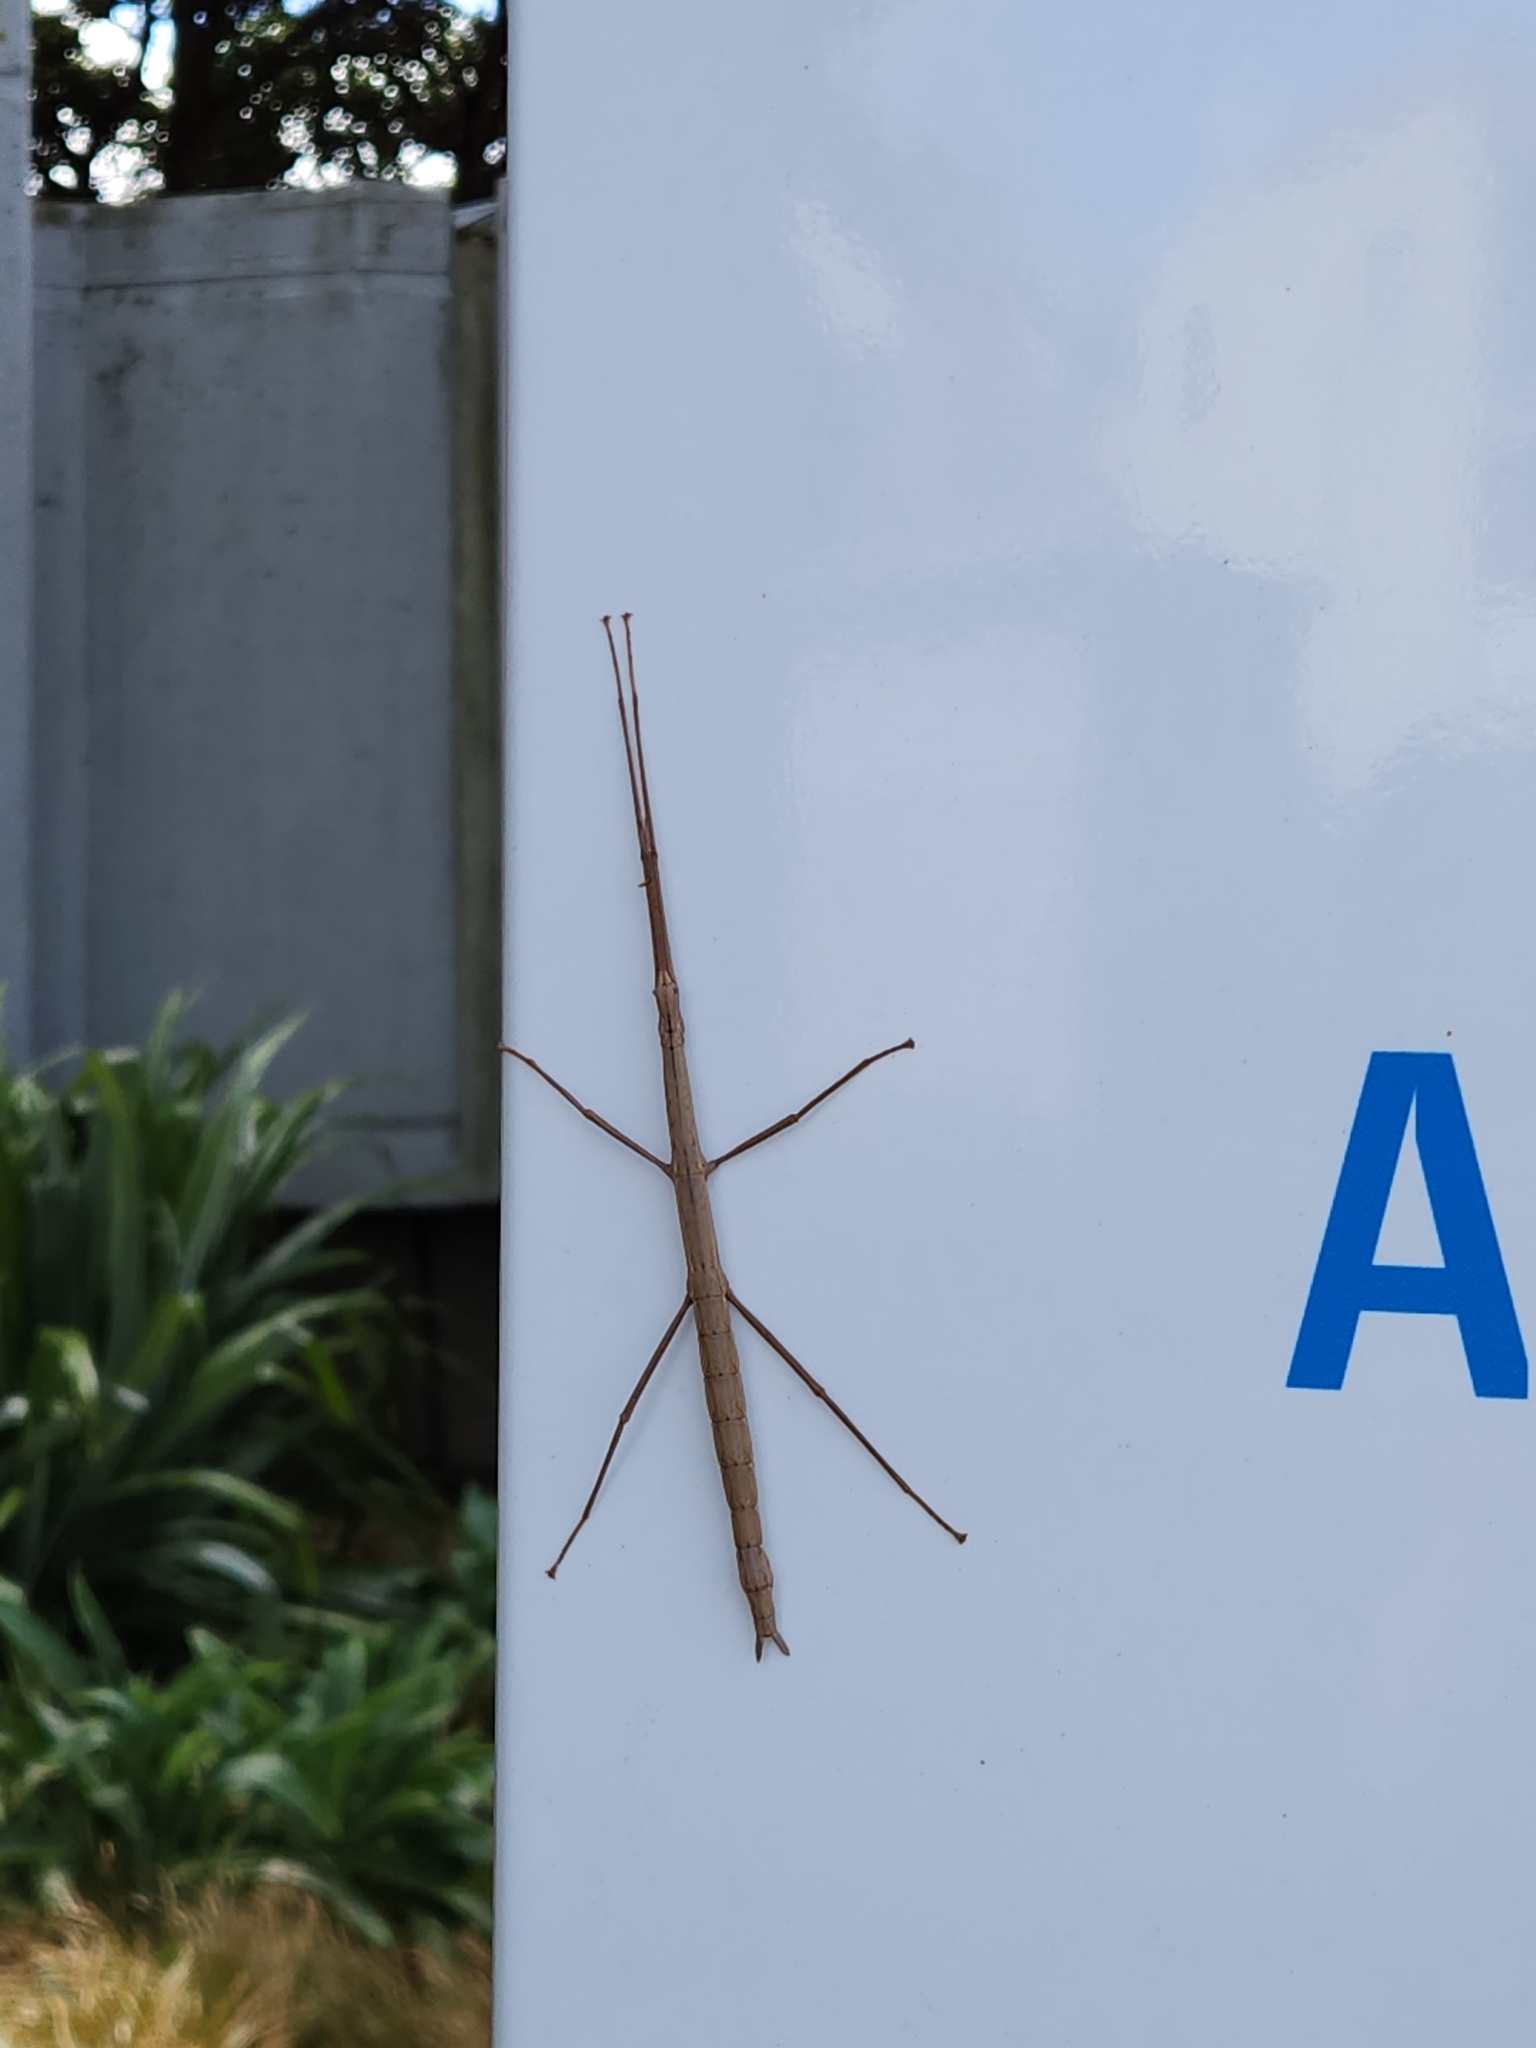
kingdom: Animalia
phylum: Arthropoda
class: Insecta
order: Phasmida
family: Phasmatidae
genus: Clitarchus
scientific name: Clitarchus hookeri
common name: Smooth stick insect
